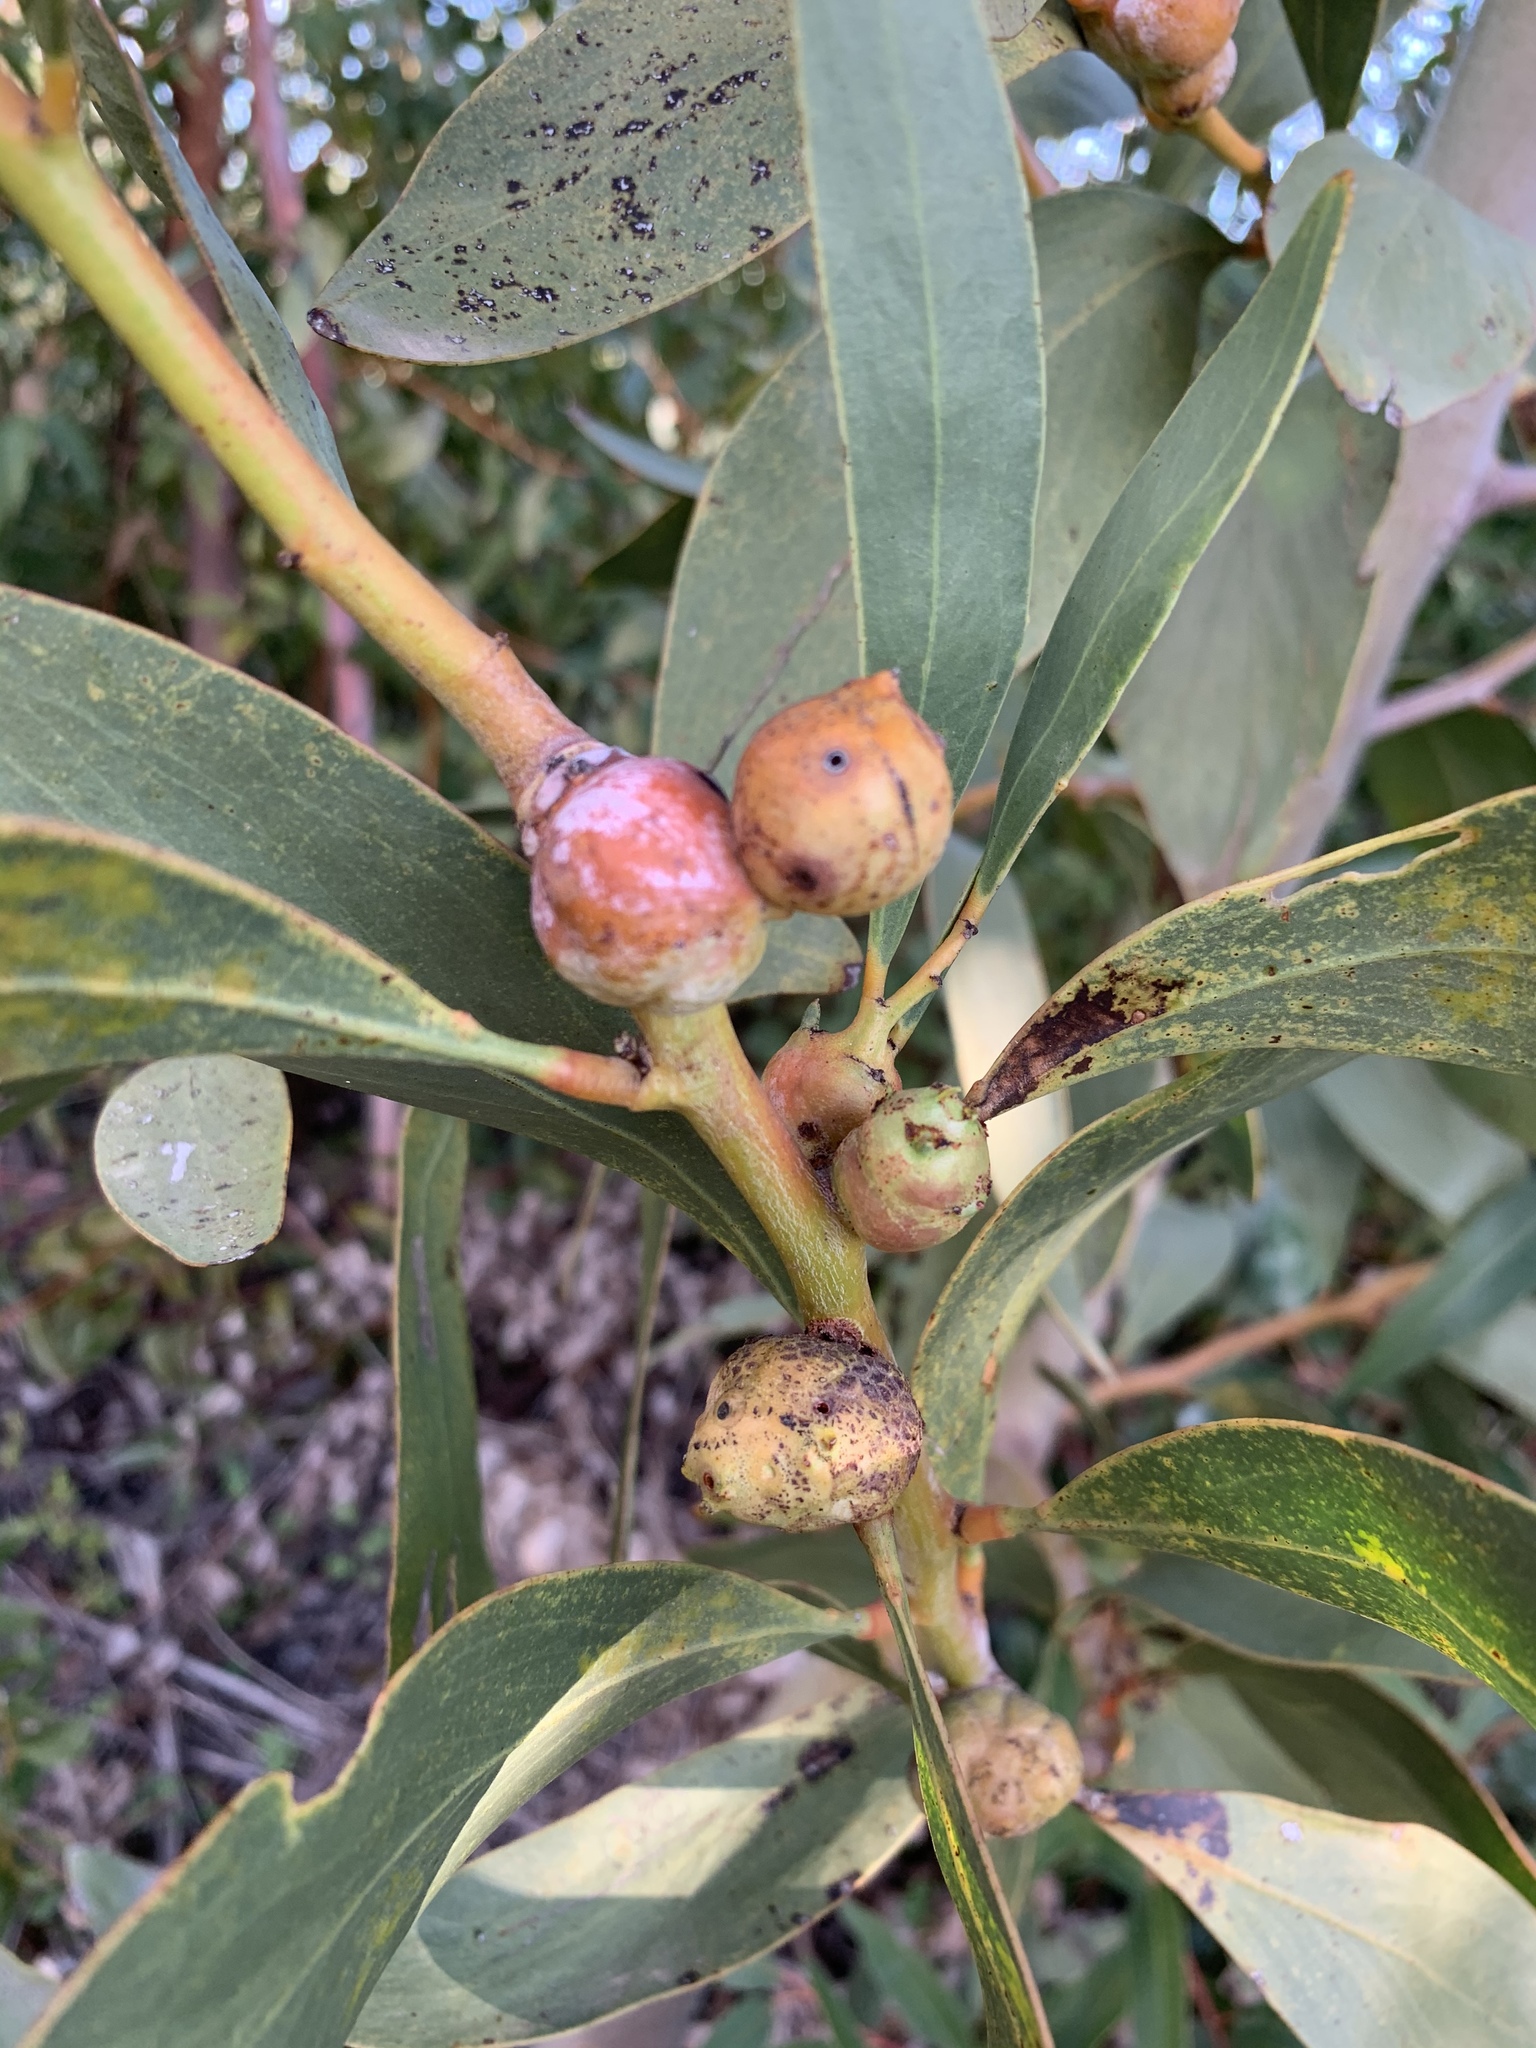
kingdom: Animalia
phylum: Arthropoda
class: Insecta
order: Hymenoptera
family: Pteromalidae
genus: Trichilogaster
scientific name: Trichilogaster signiventris
